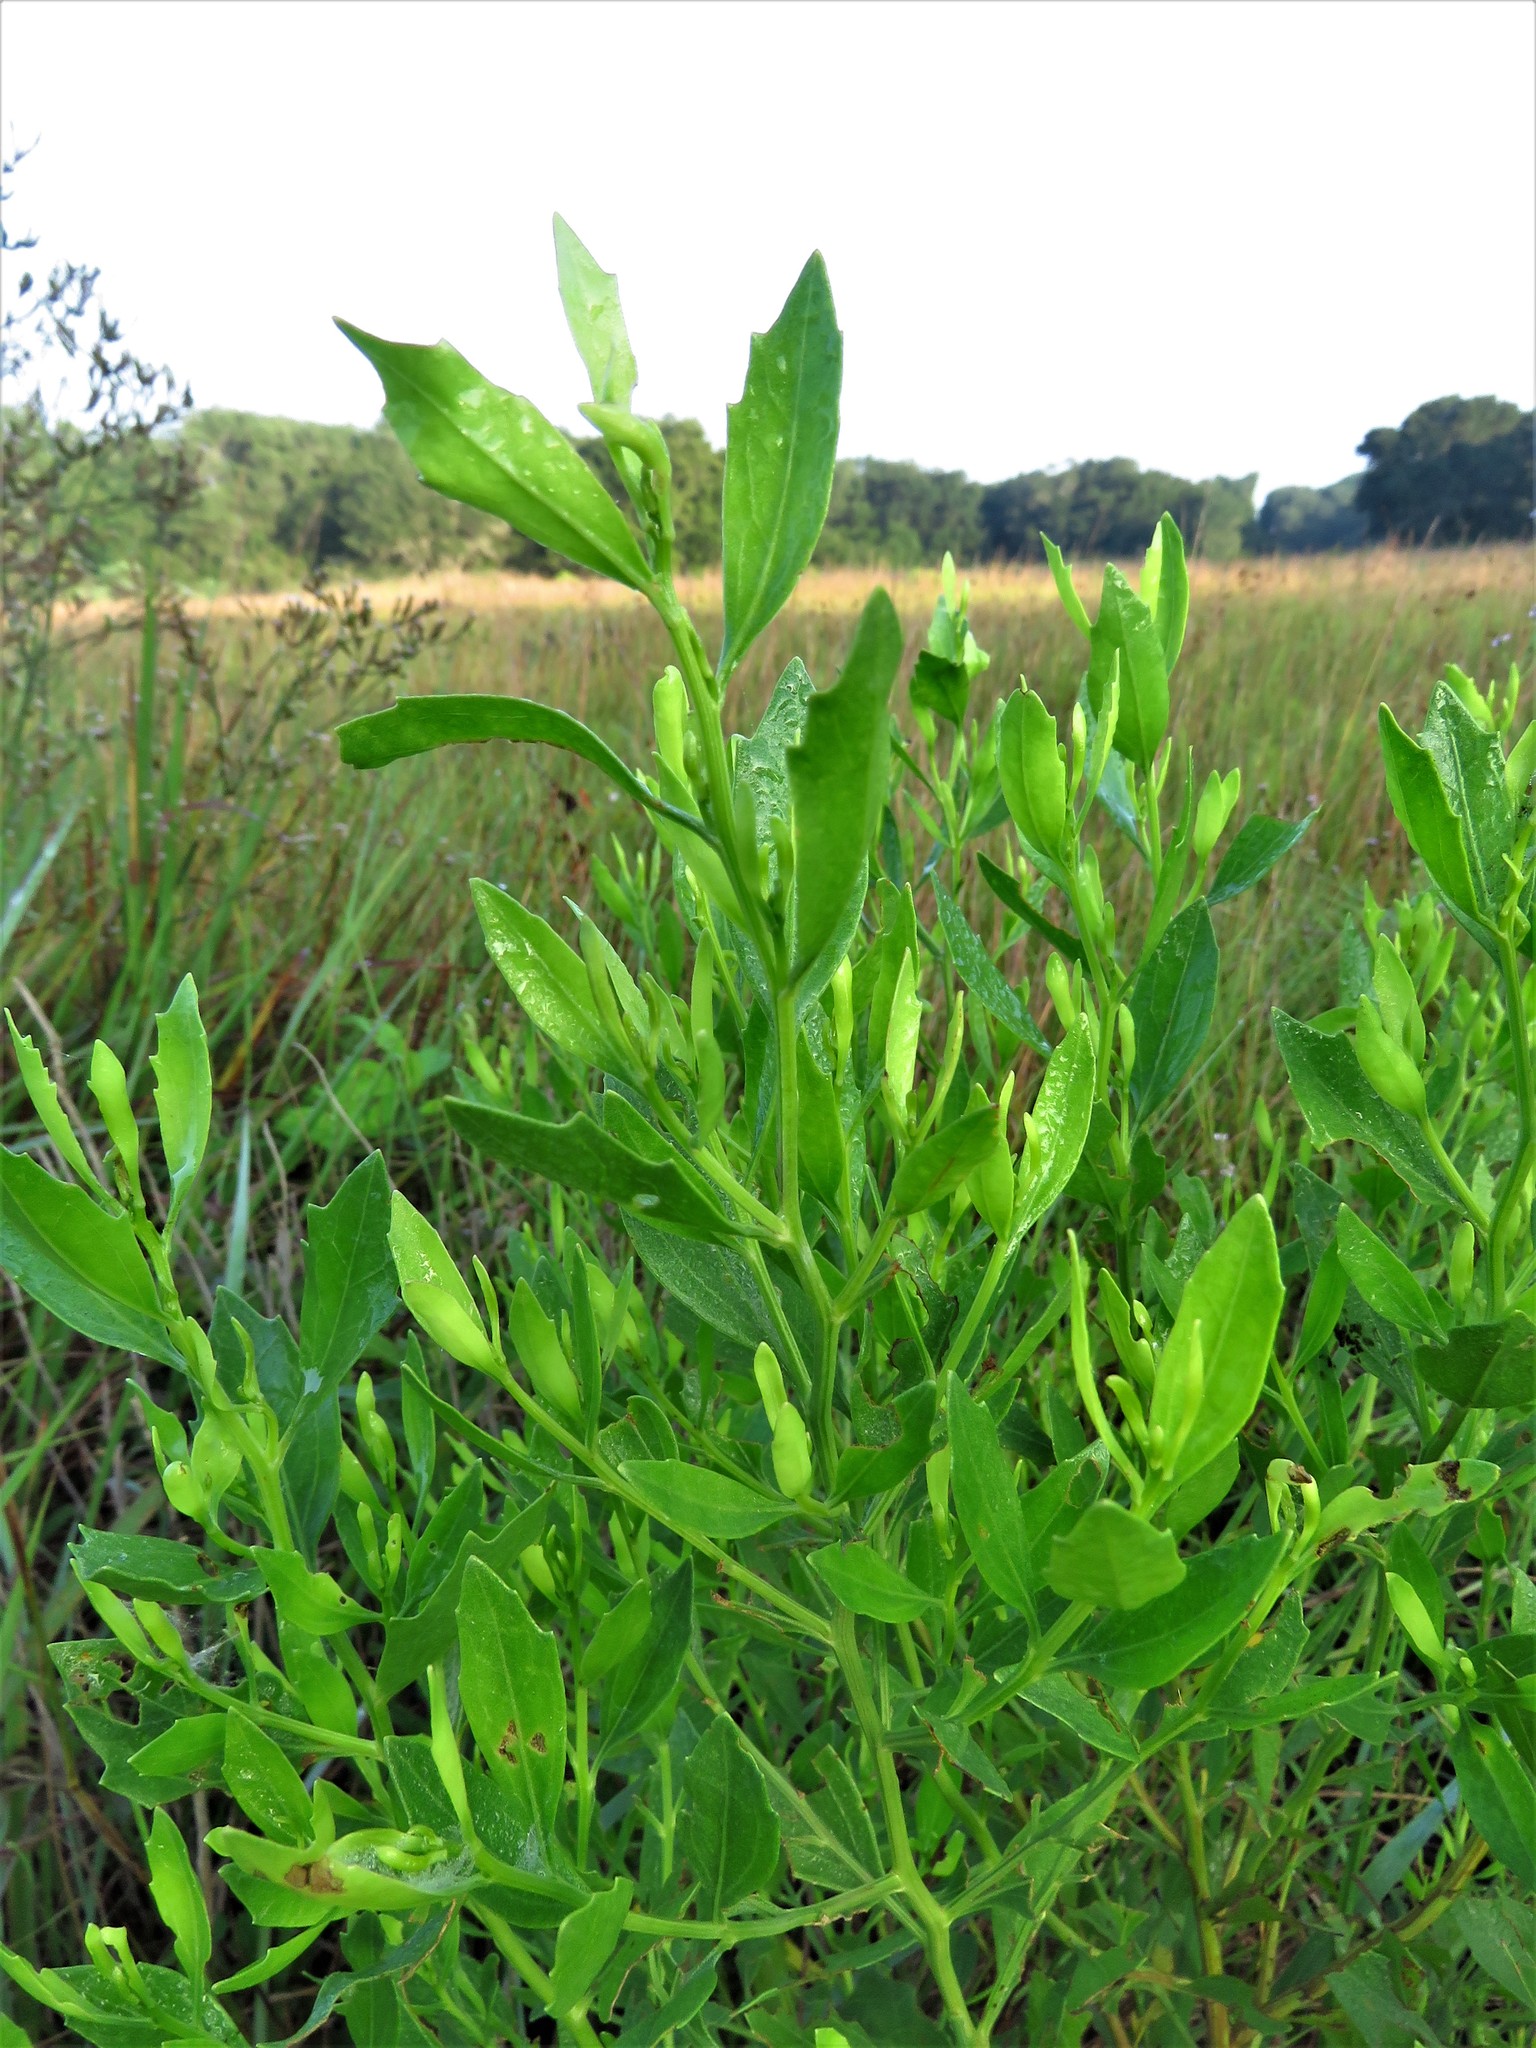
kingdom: Plantae
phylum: Tracheophyta
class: Magnoliopsida
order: Asterales
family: Asteraceae
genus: Baccharis
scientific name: Baccharis halimifolia
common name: Eastern baccharis
